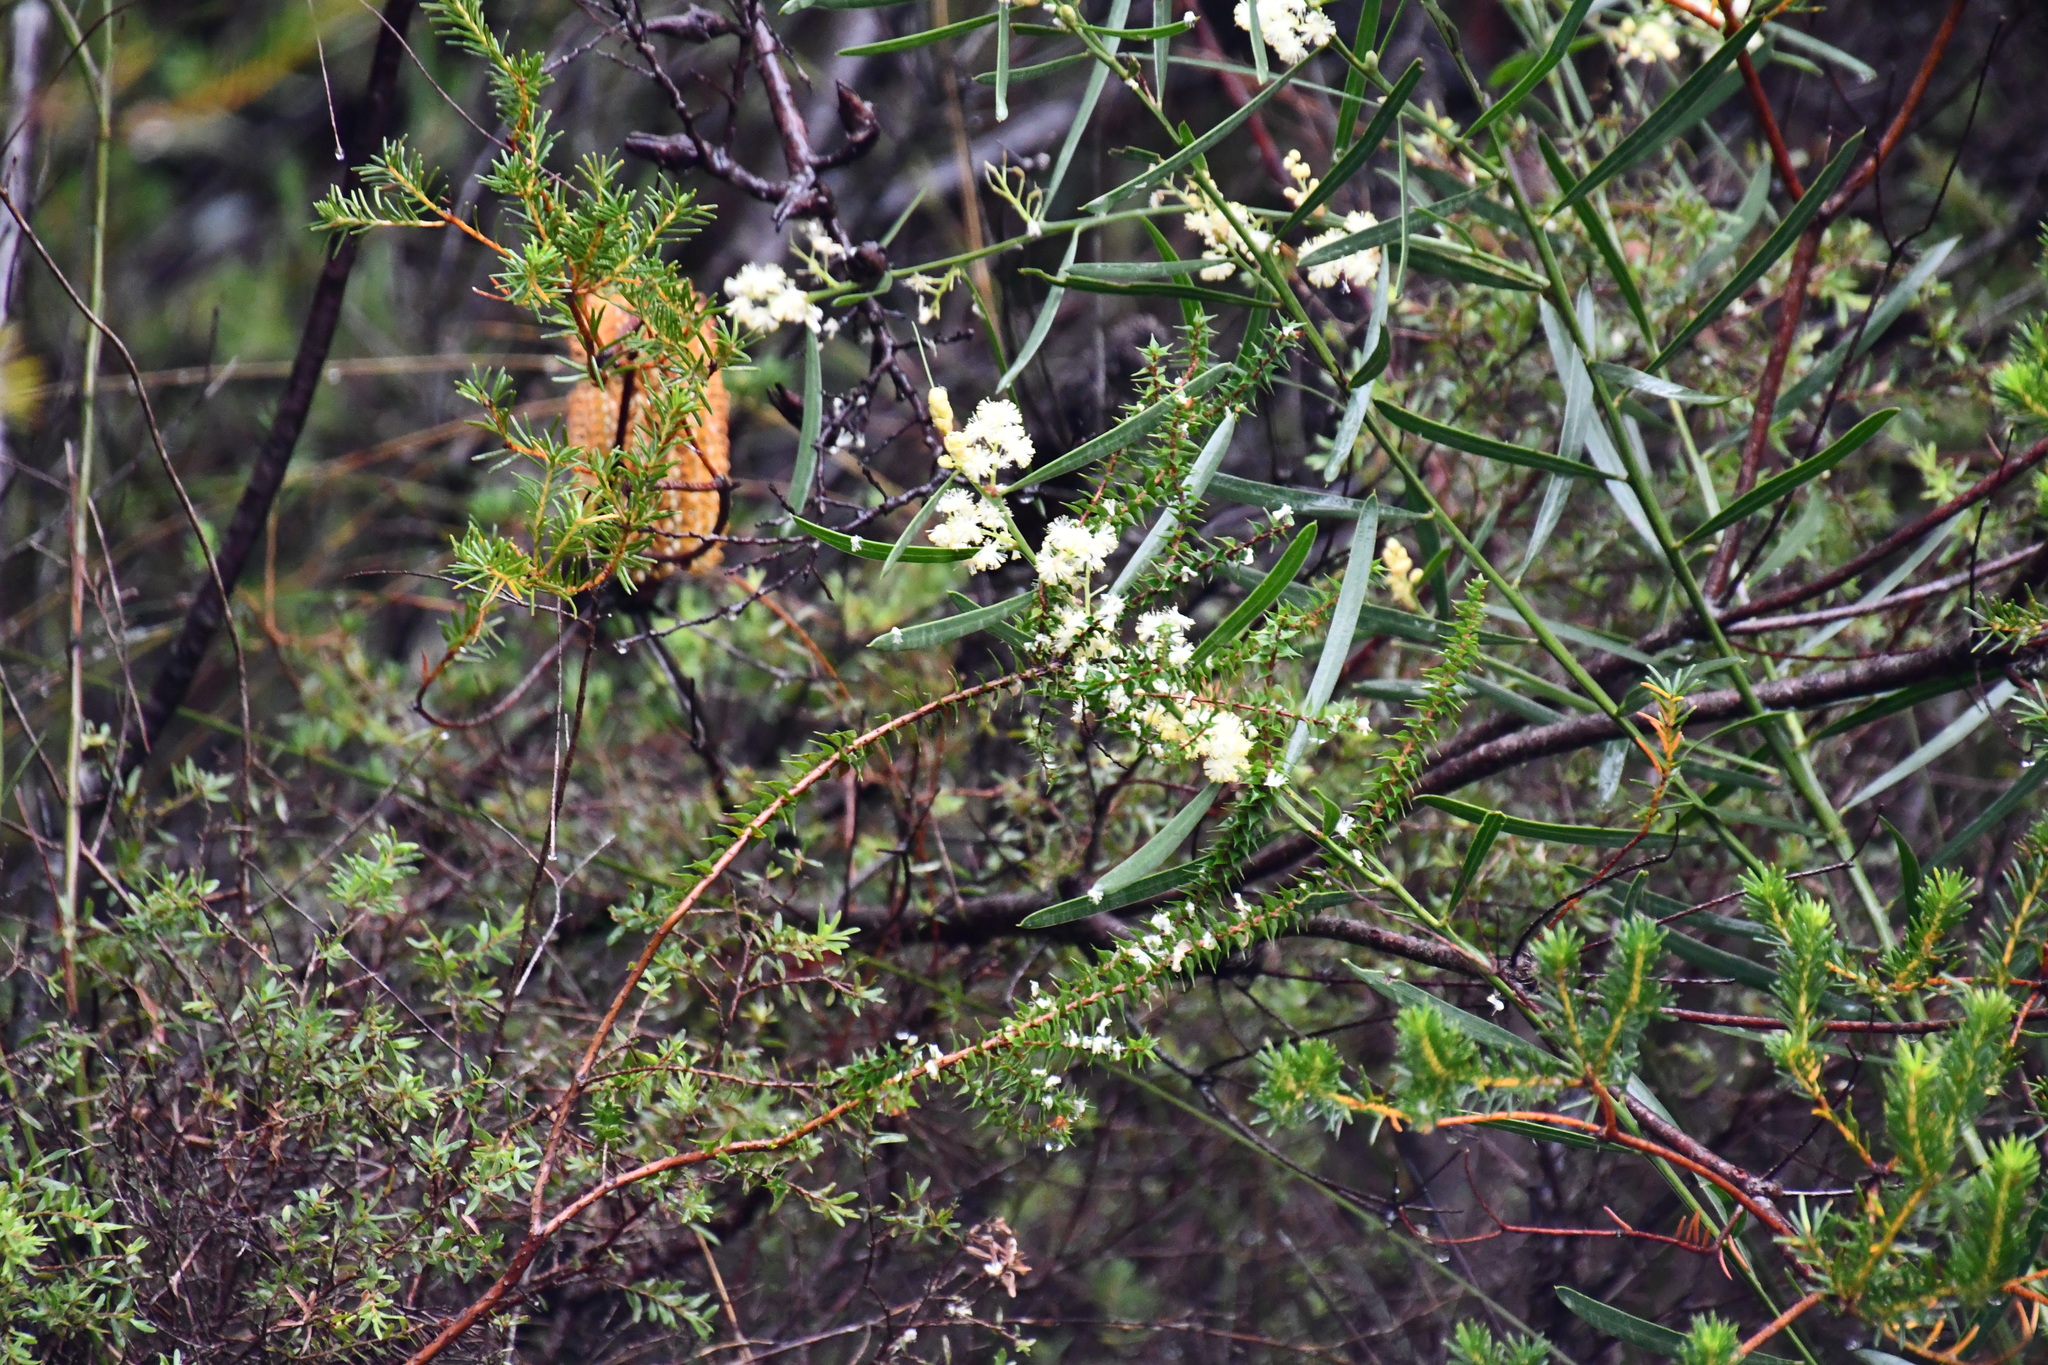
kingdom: Plantae
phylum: Tracheophyta
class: Magnoliopsida
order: Fabales
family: Fabaceae
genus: Acacia
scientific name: Acacia suaveolens
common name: Sweet acacia
